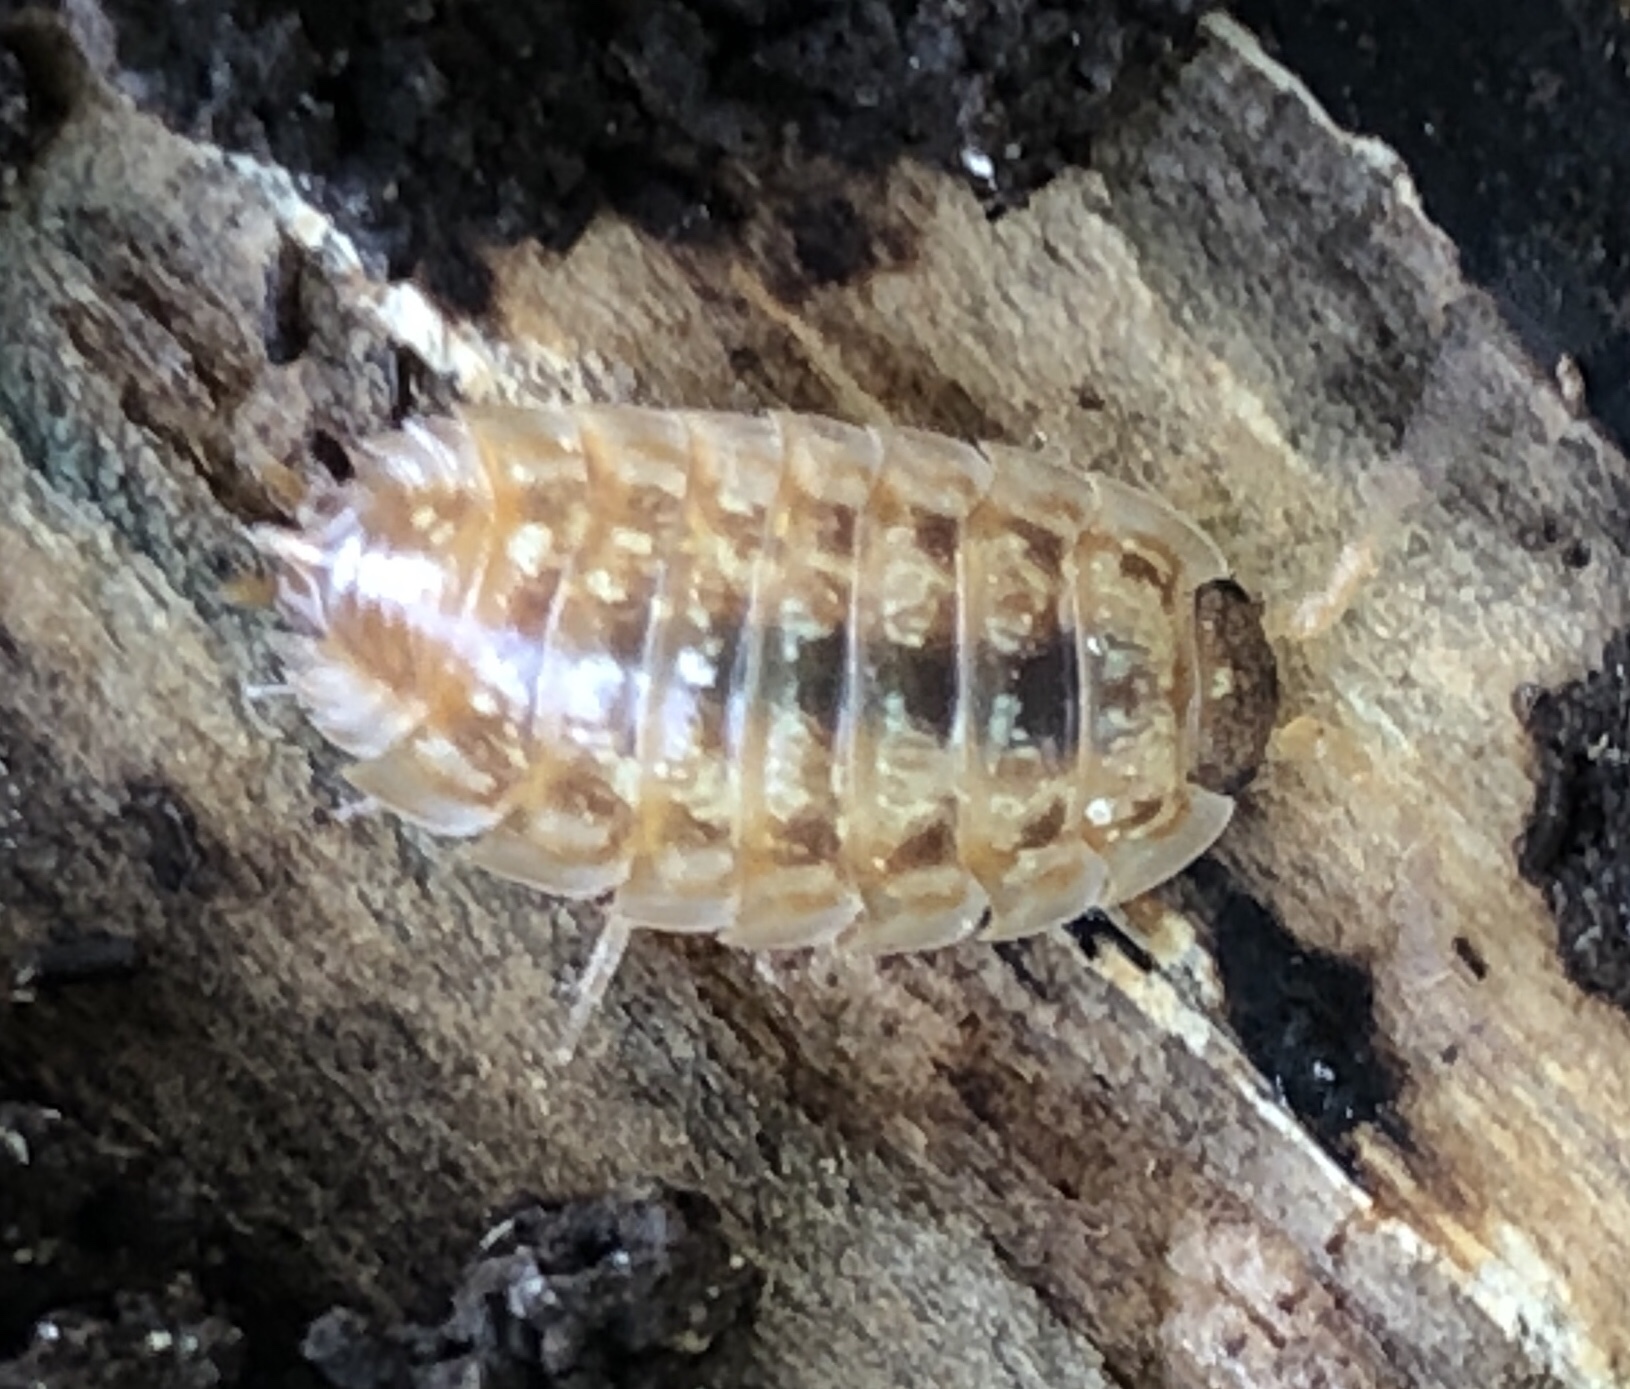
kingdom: Animalia
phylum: Arthropoda
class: Malacostraca
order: Isopoda
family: Oniscidae
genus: Oniscus
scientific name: Oniscus asellus
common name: Common shiny woodlouse
